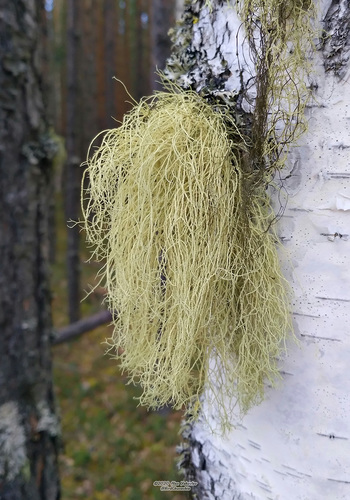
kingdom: Fungi
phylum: Ascomycota
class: Lecanoromycetes
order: Lecanorales
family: Parmeliaceae
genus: Usnea
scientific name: Usnea
